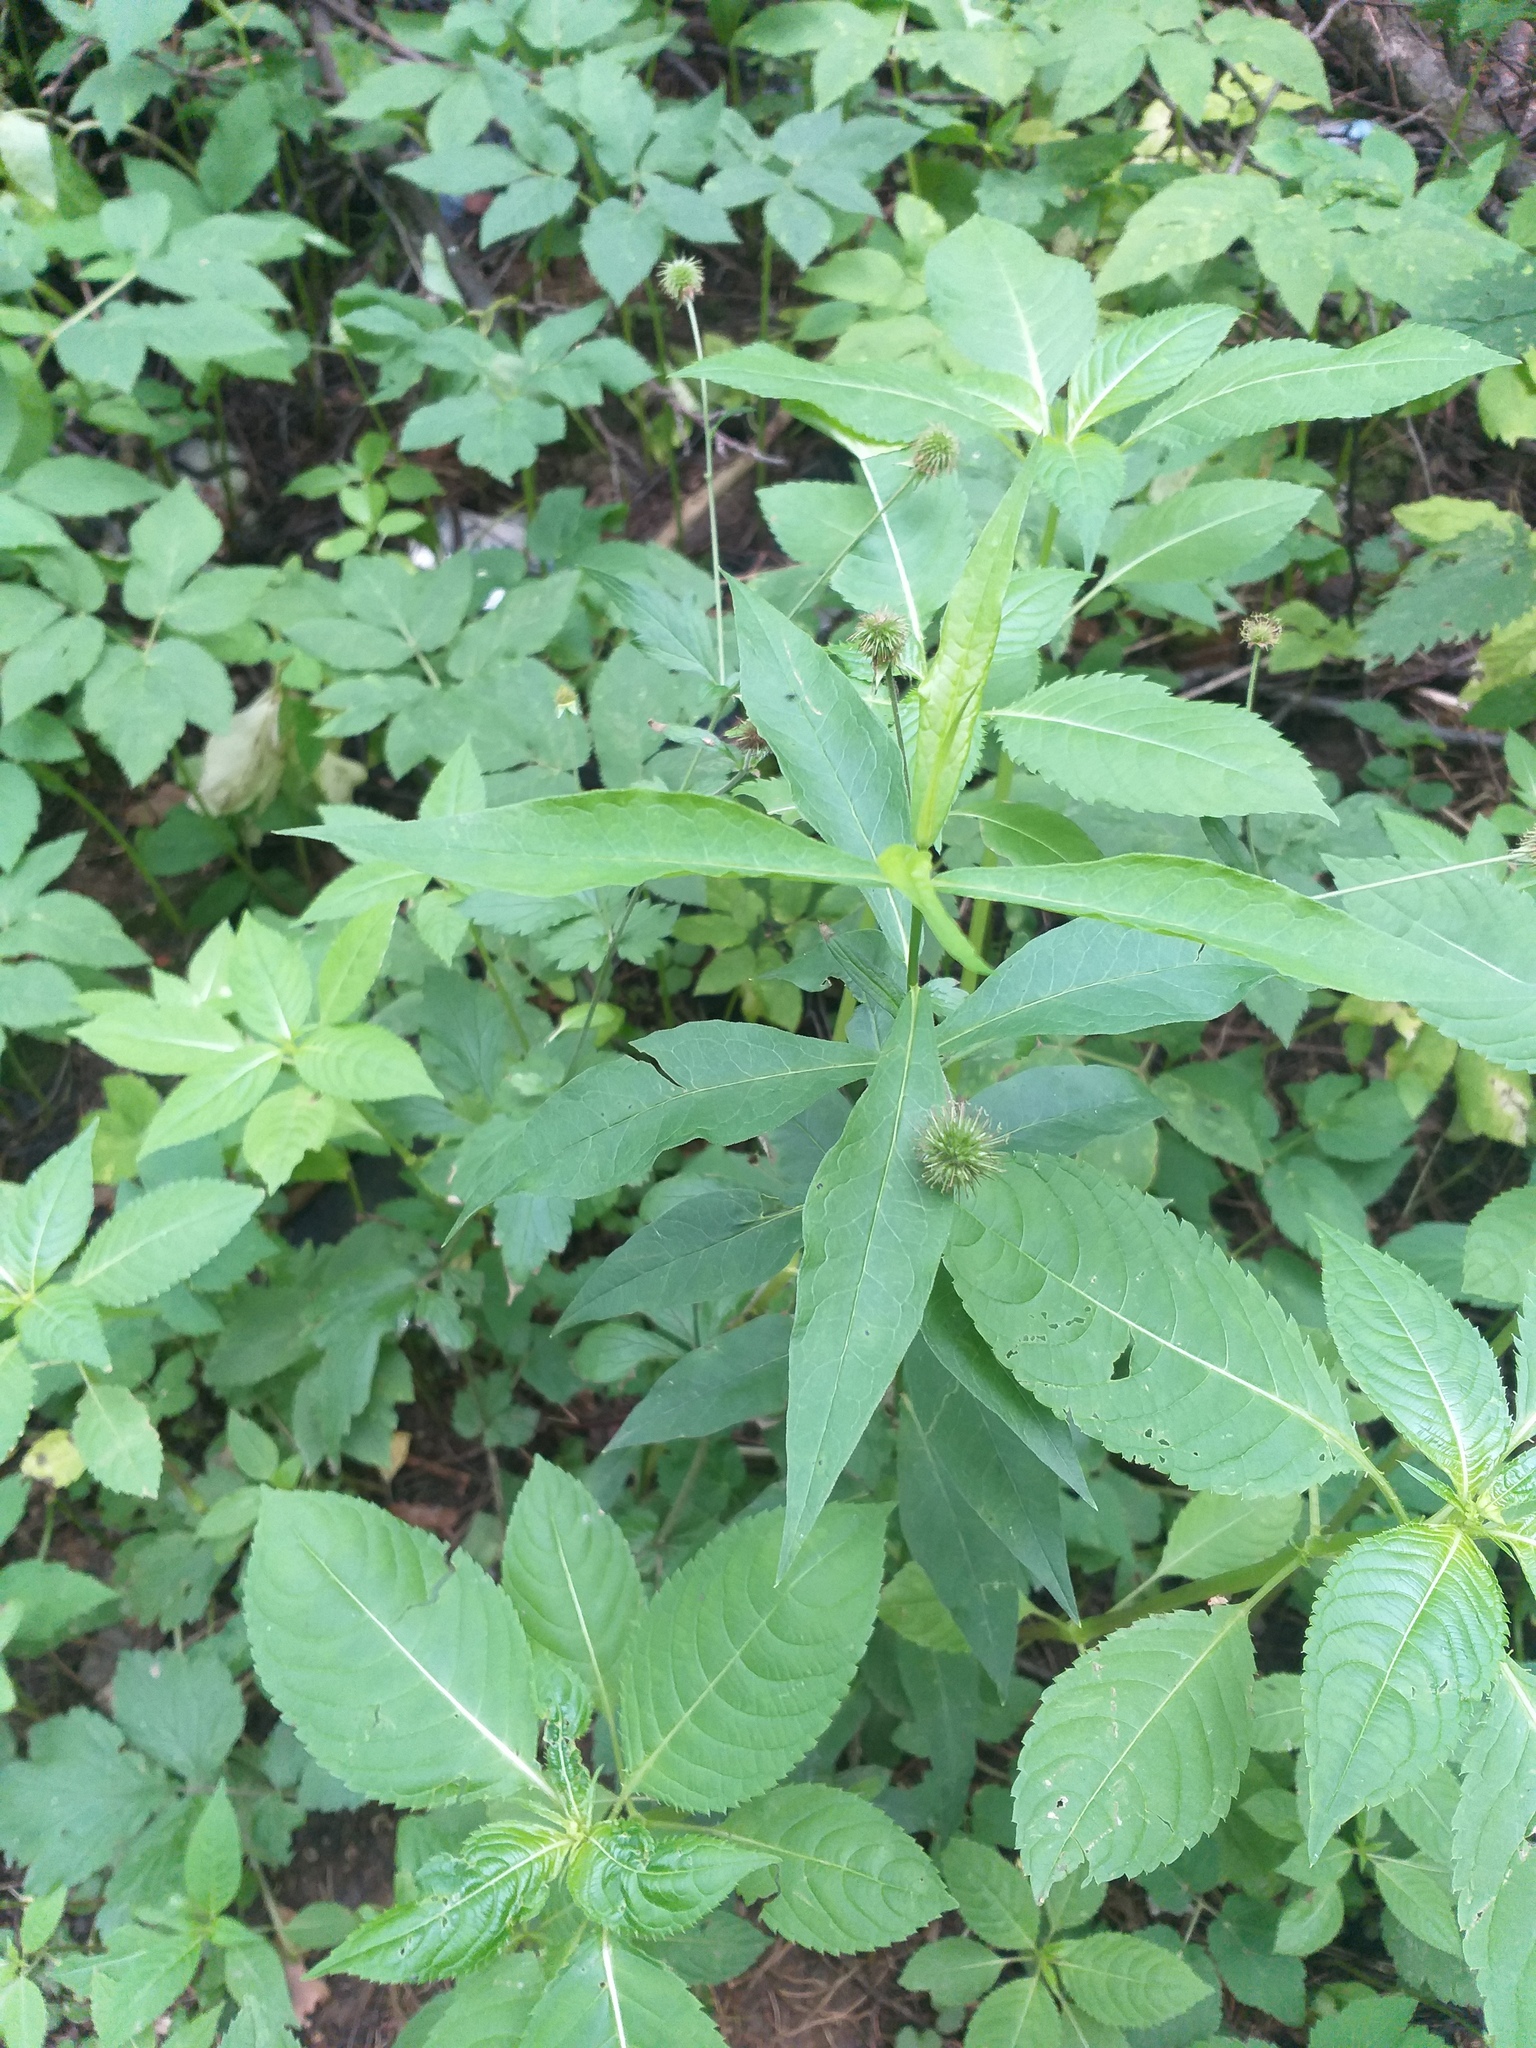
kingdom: Plantae
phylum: Tracheophyta
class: Magnoliopsida
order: Ericales
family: Polemoniaceae
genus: Phlox
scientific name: Phlox paniculata
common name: Fall phlox
